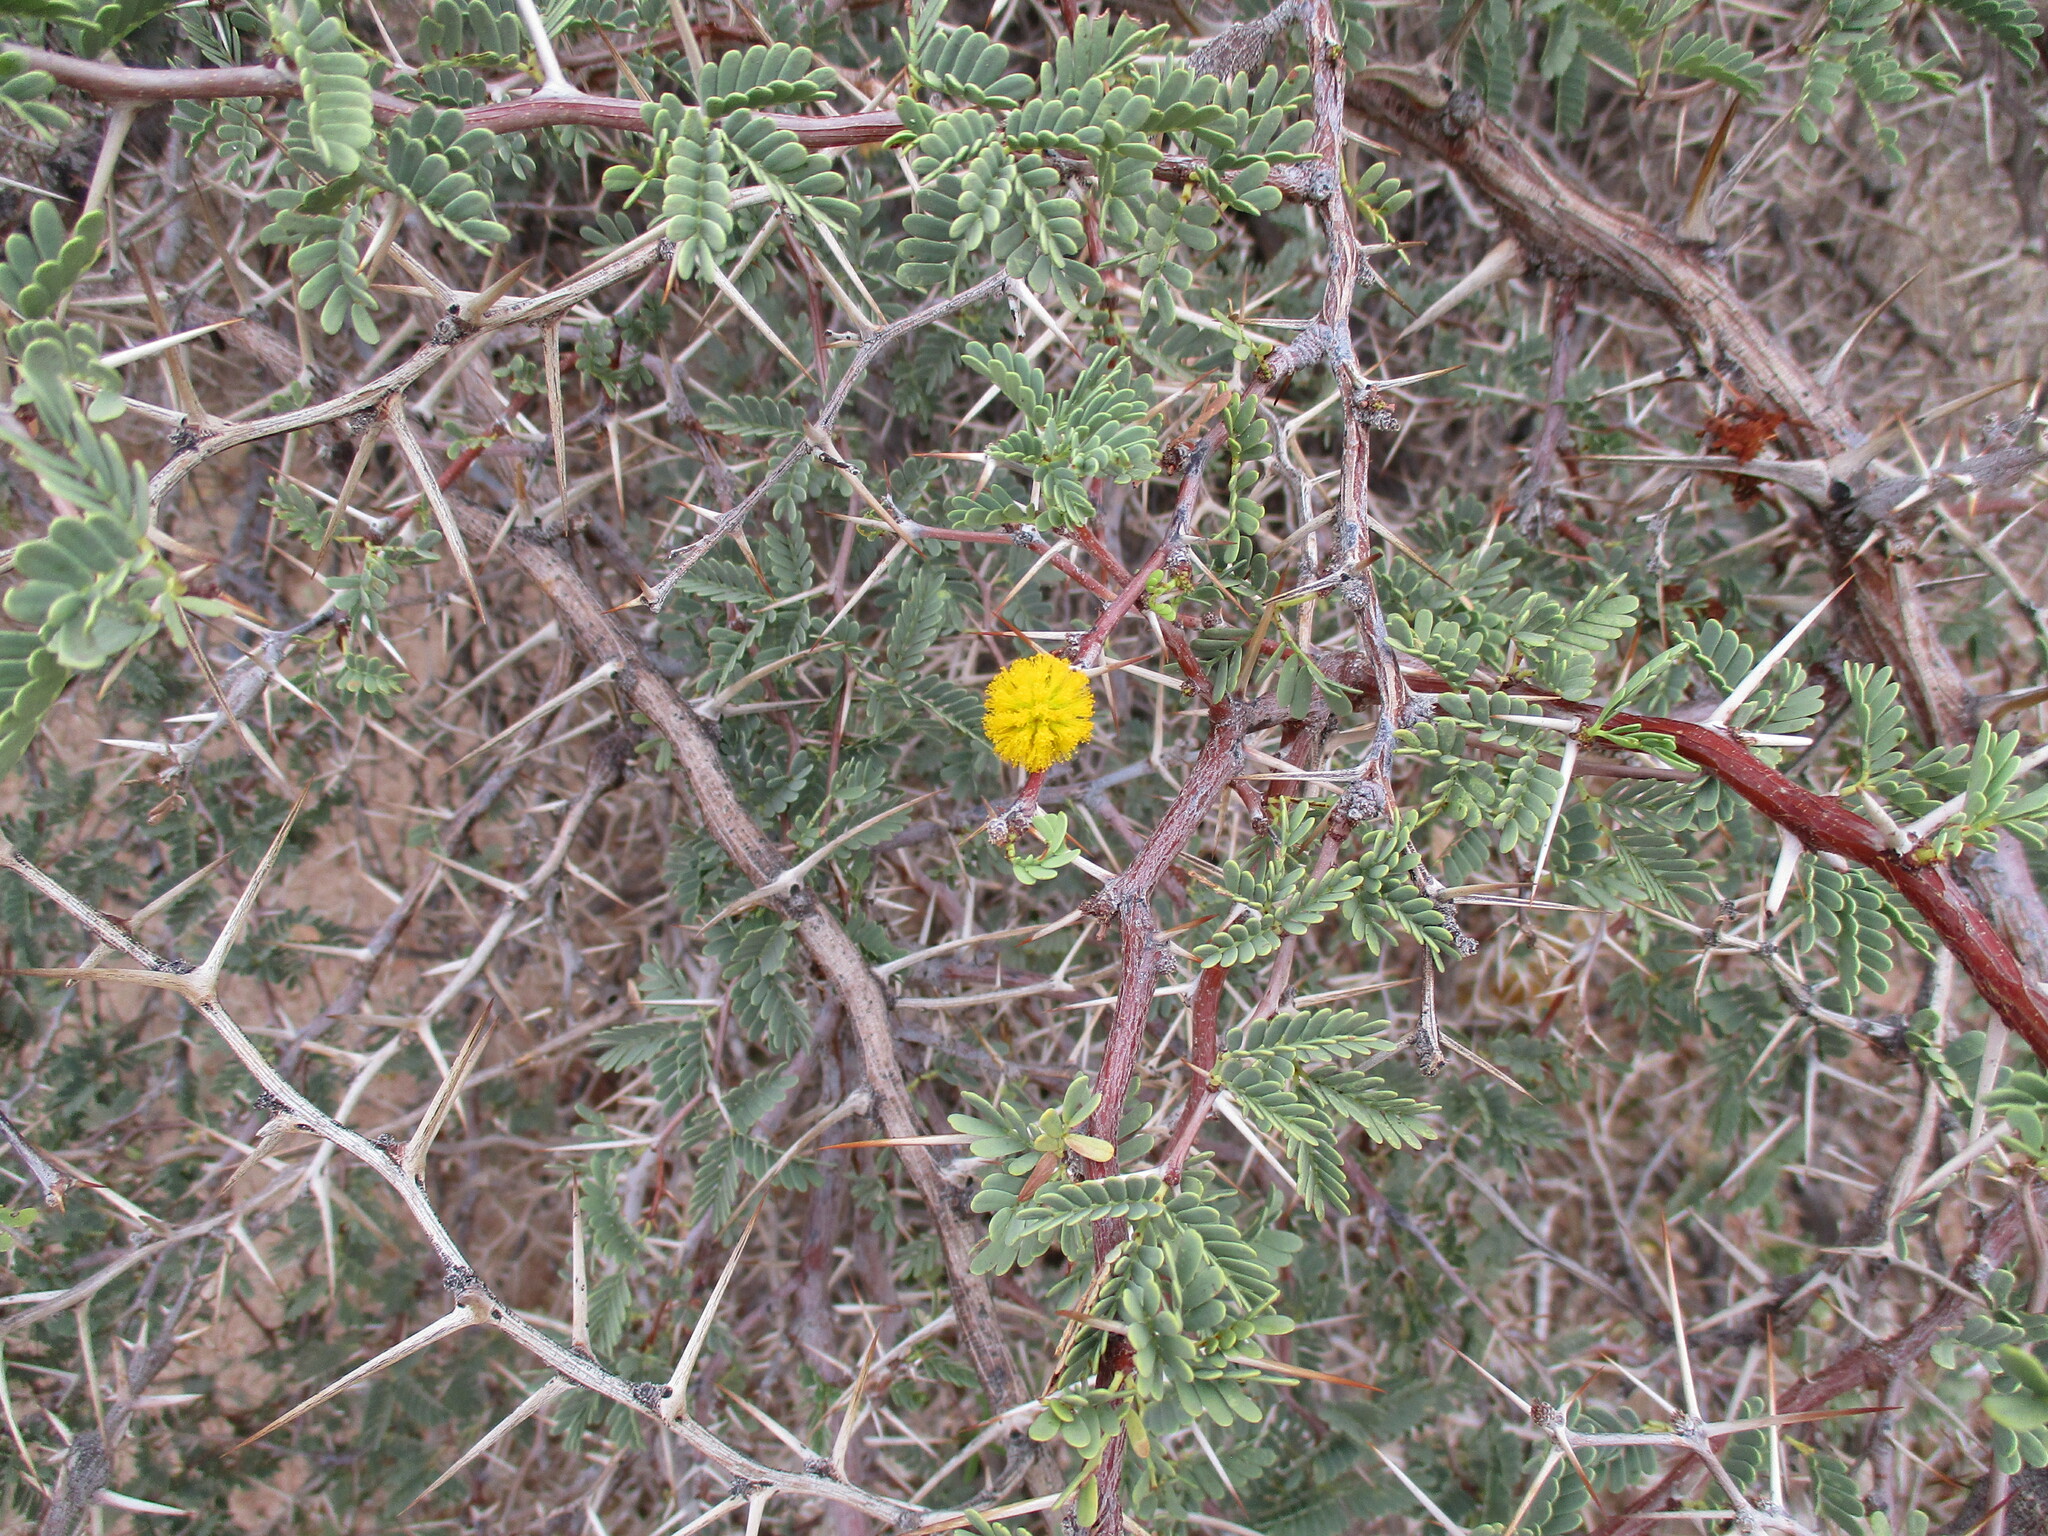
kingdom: Plantae
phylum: Tracheophyta
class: Magnoliopsida
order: Fabales
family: Fabaceae
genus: Vachellia
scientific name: Vachellia erioloba
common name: Camel thorn
